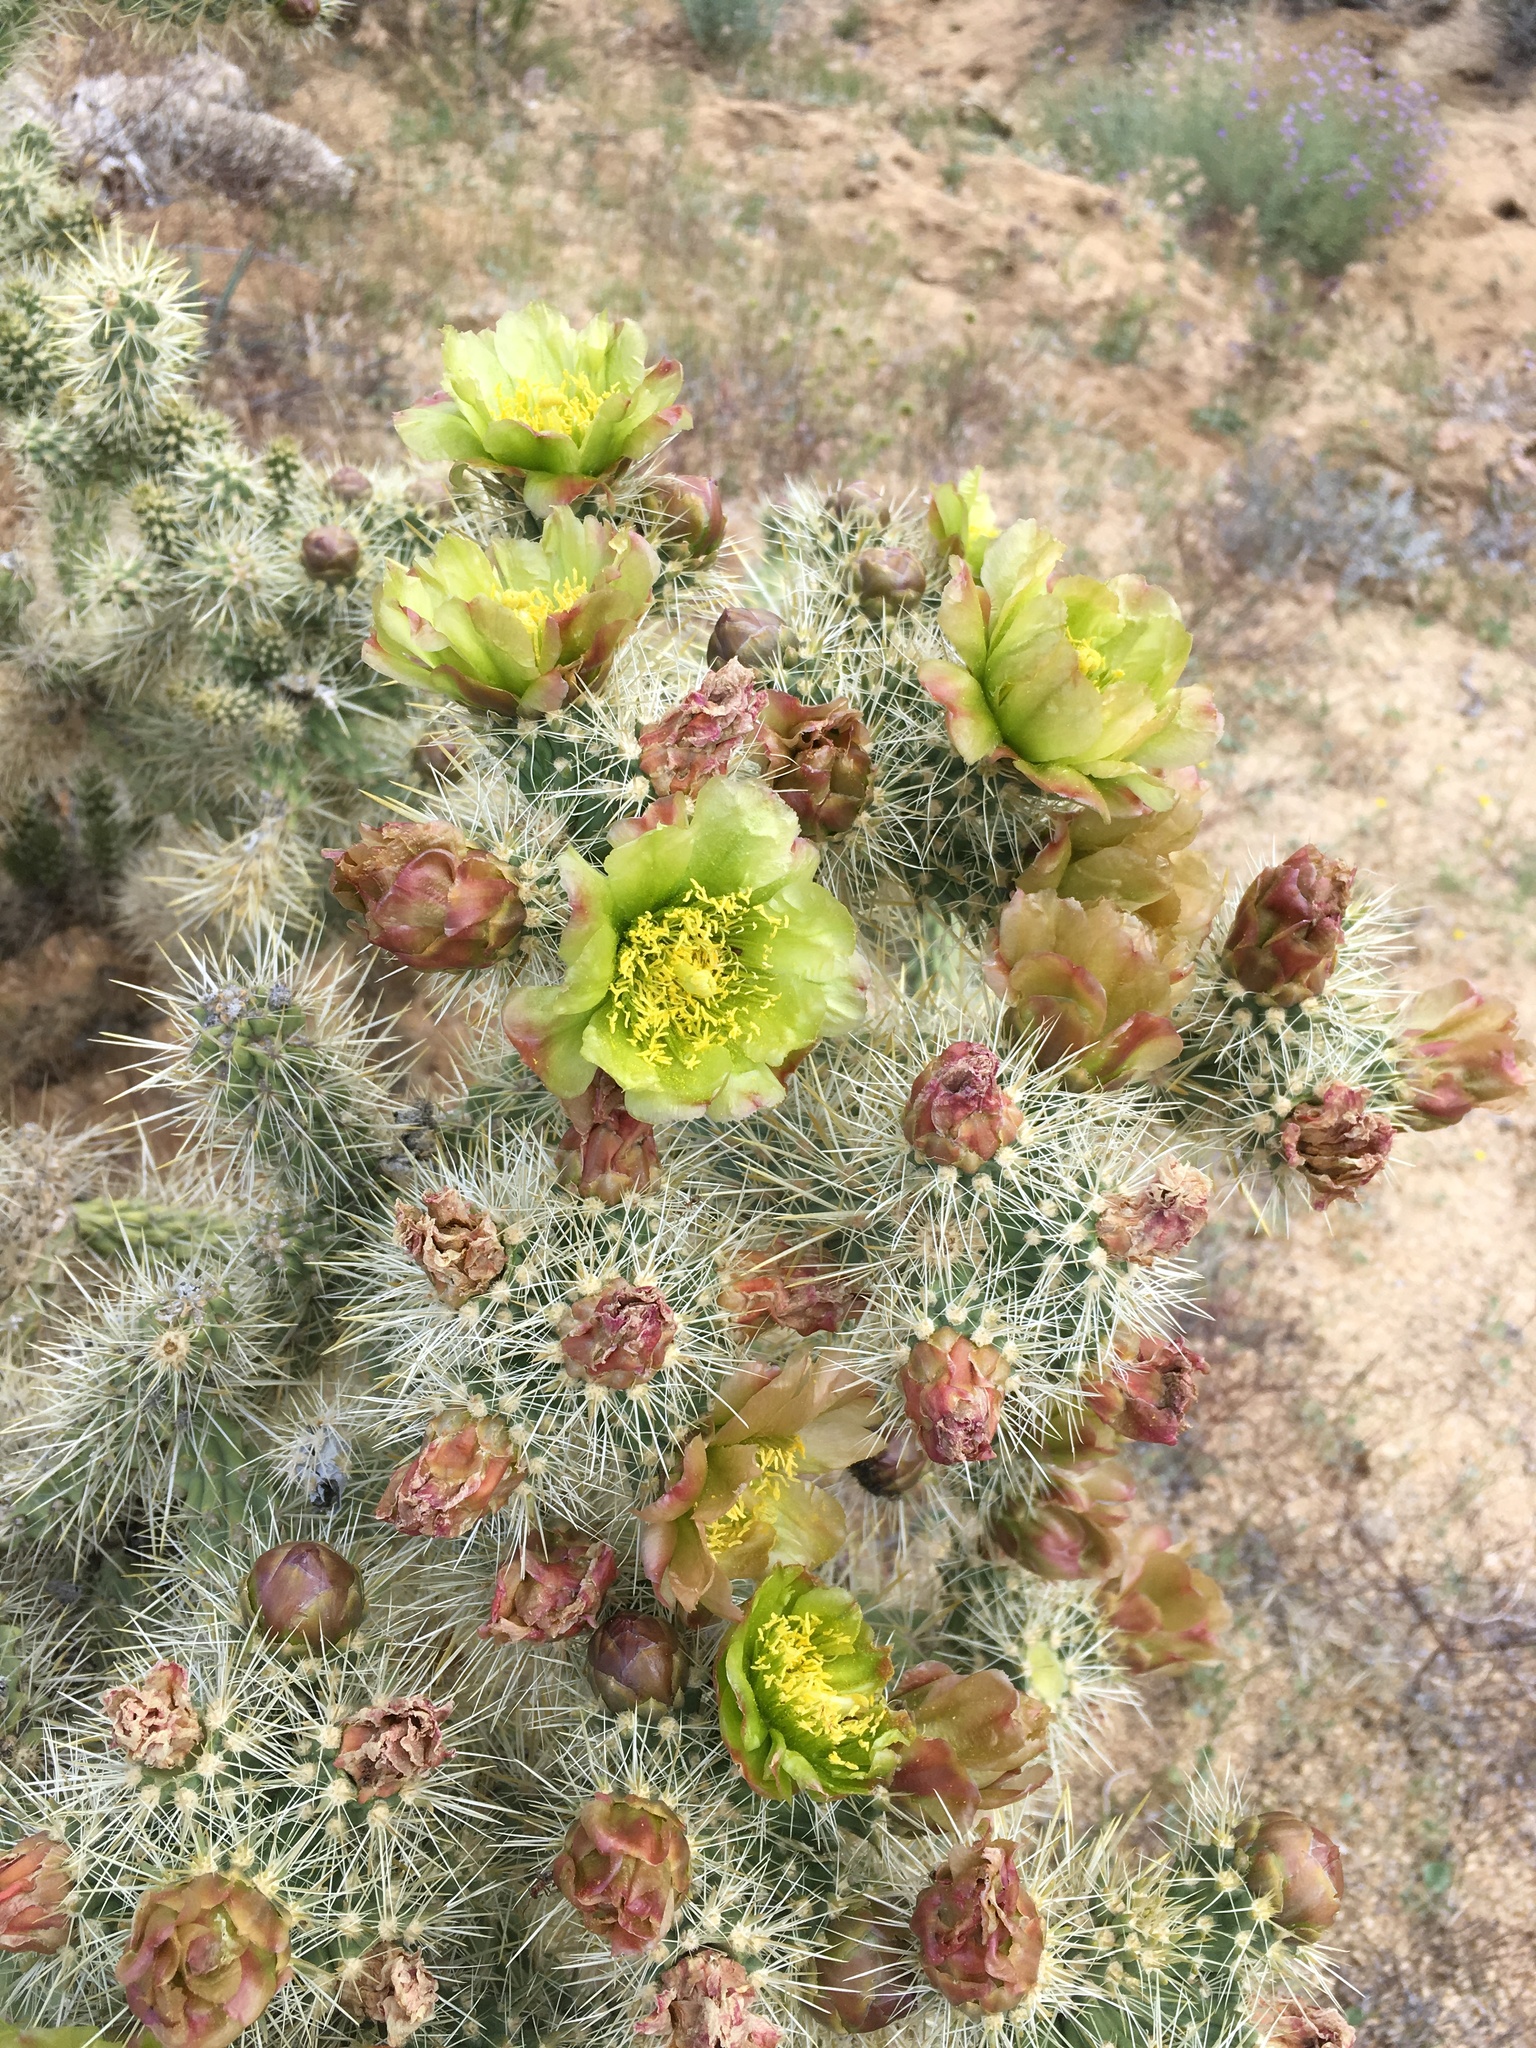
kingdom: Plantae
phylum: Tracheophyta
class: Magnoliopsida
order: Caryophyllales
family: Cactaceae
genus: Cylindropuntia
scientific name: Cylindropuntia echinocarpa
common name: Ground cholla
